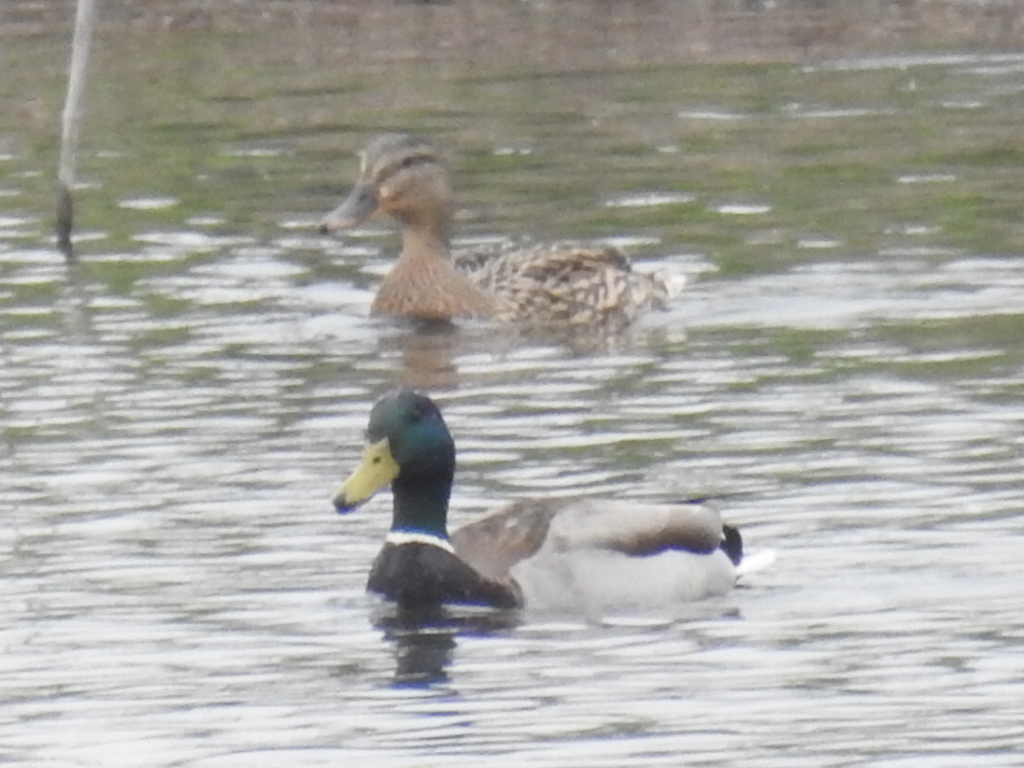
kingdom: Animalia
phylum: Chordata
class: Aves
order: Anseriformes
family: Anatidae
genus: Anas
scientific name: Anas platyrhynchos
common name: Mallard
